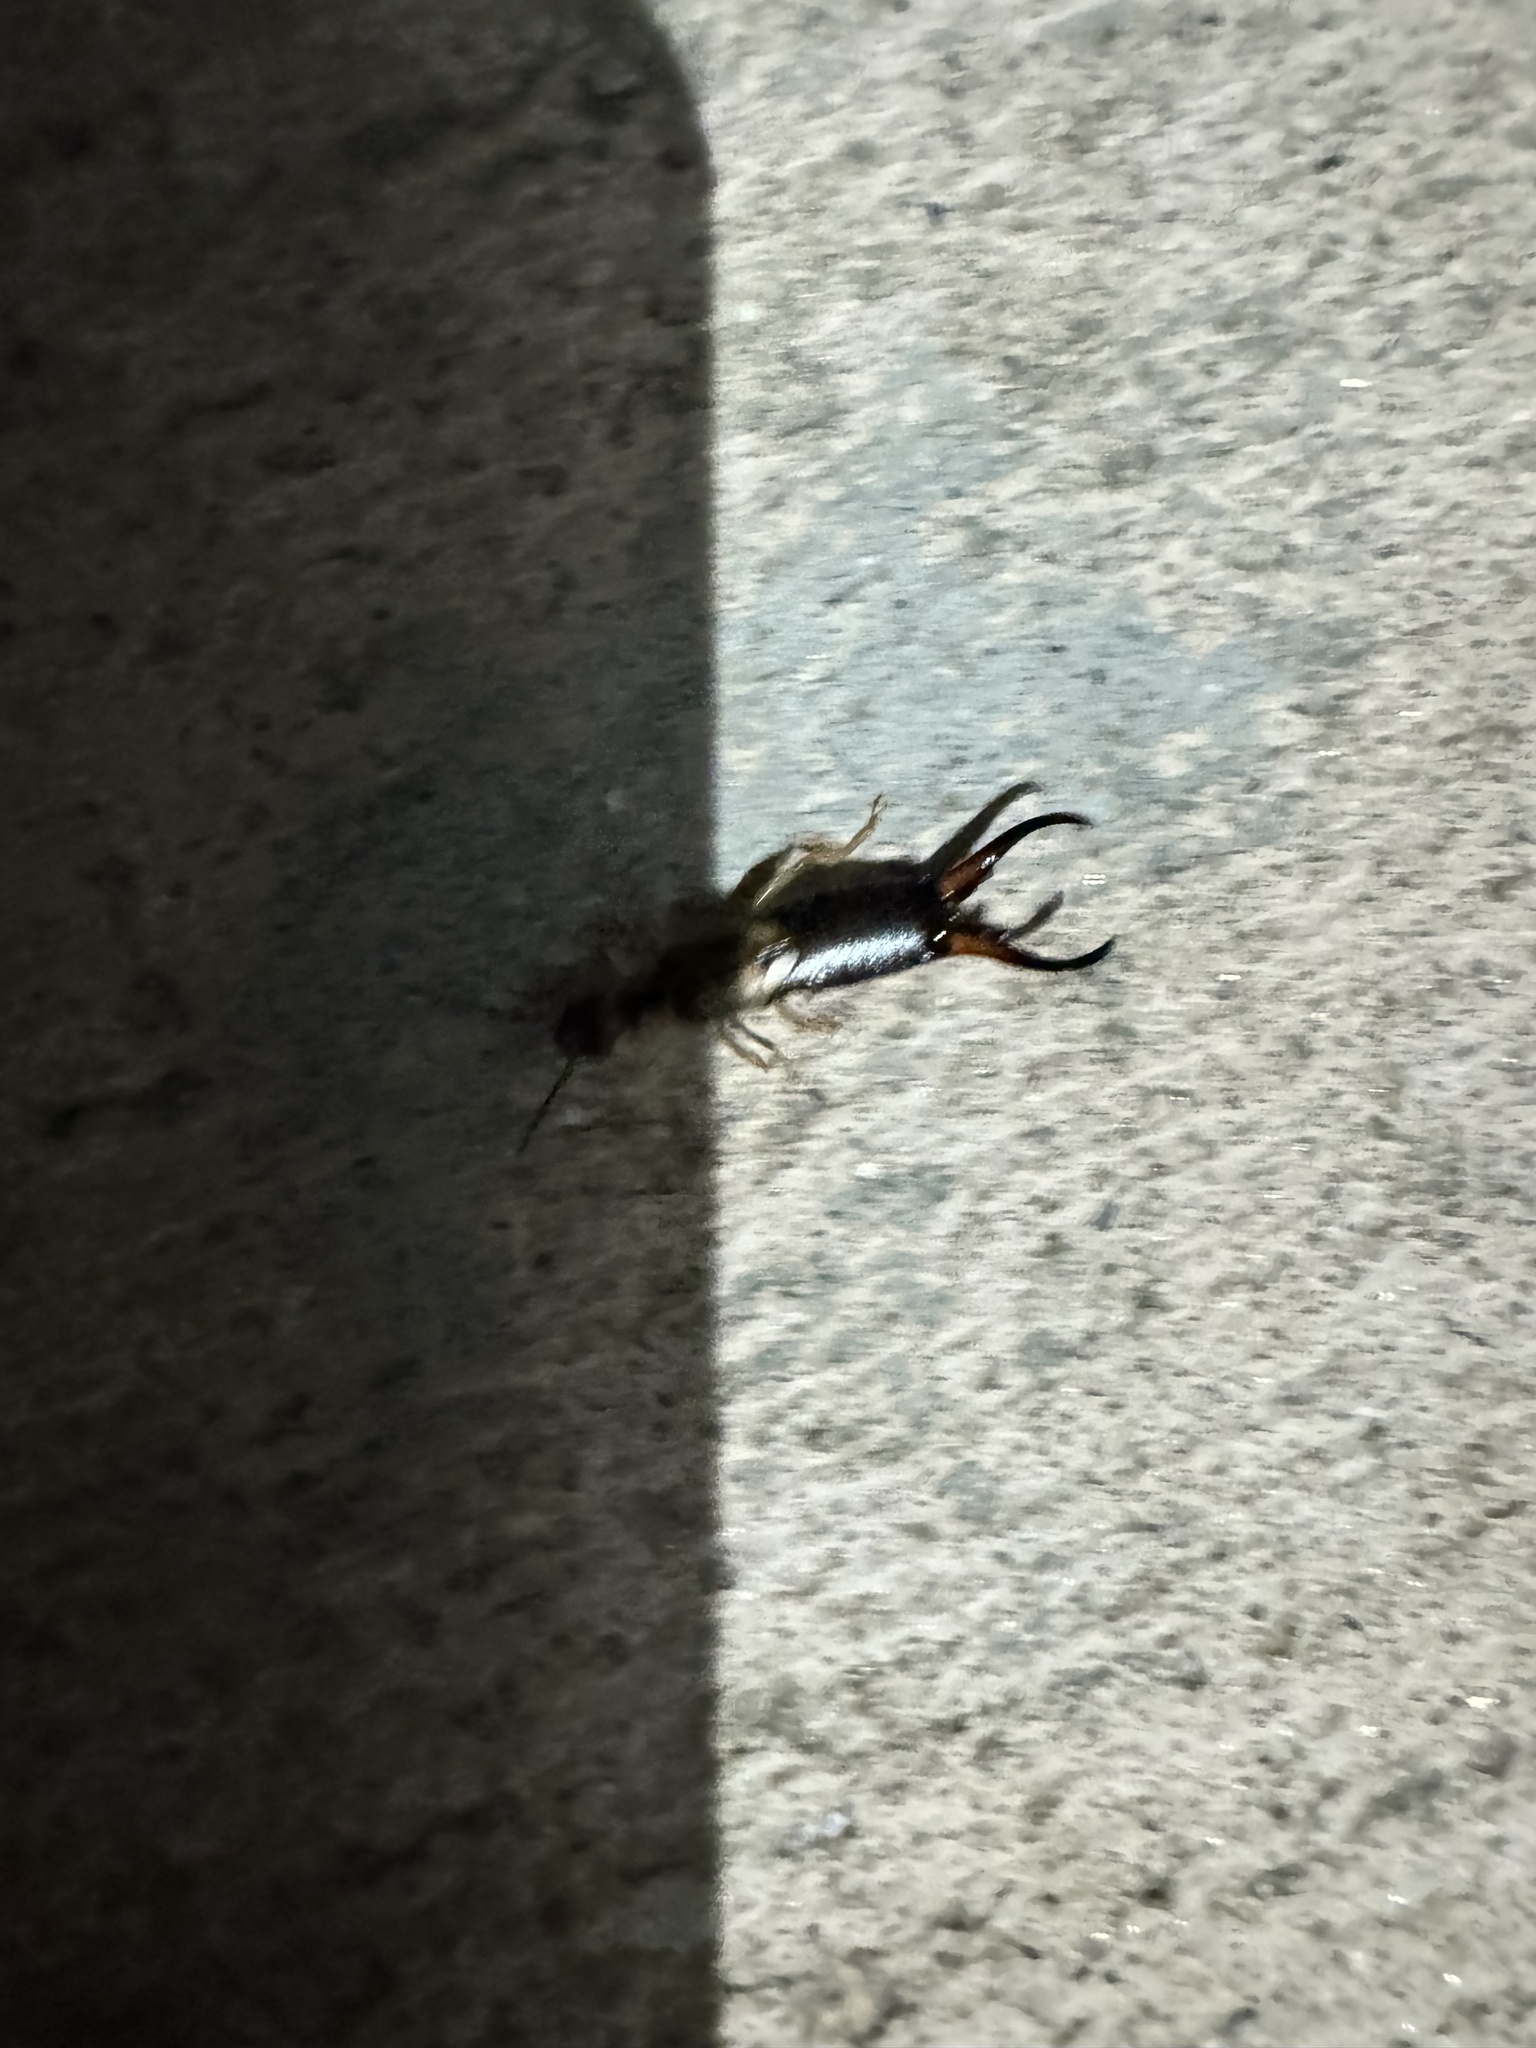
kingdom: Animalia
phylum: Arthropoda
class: Insecta
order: Dermaptera
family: Forficulidae
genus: Forficula
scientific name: Forficula dentata
